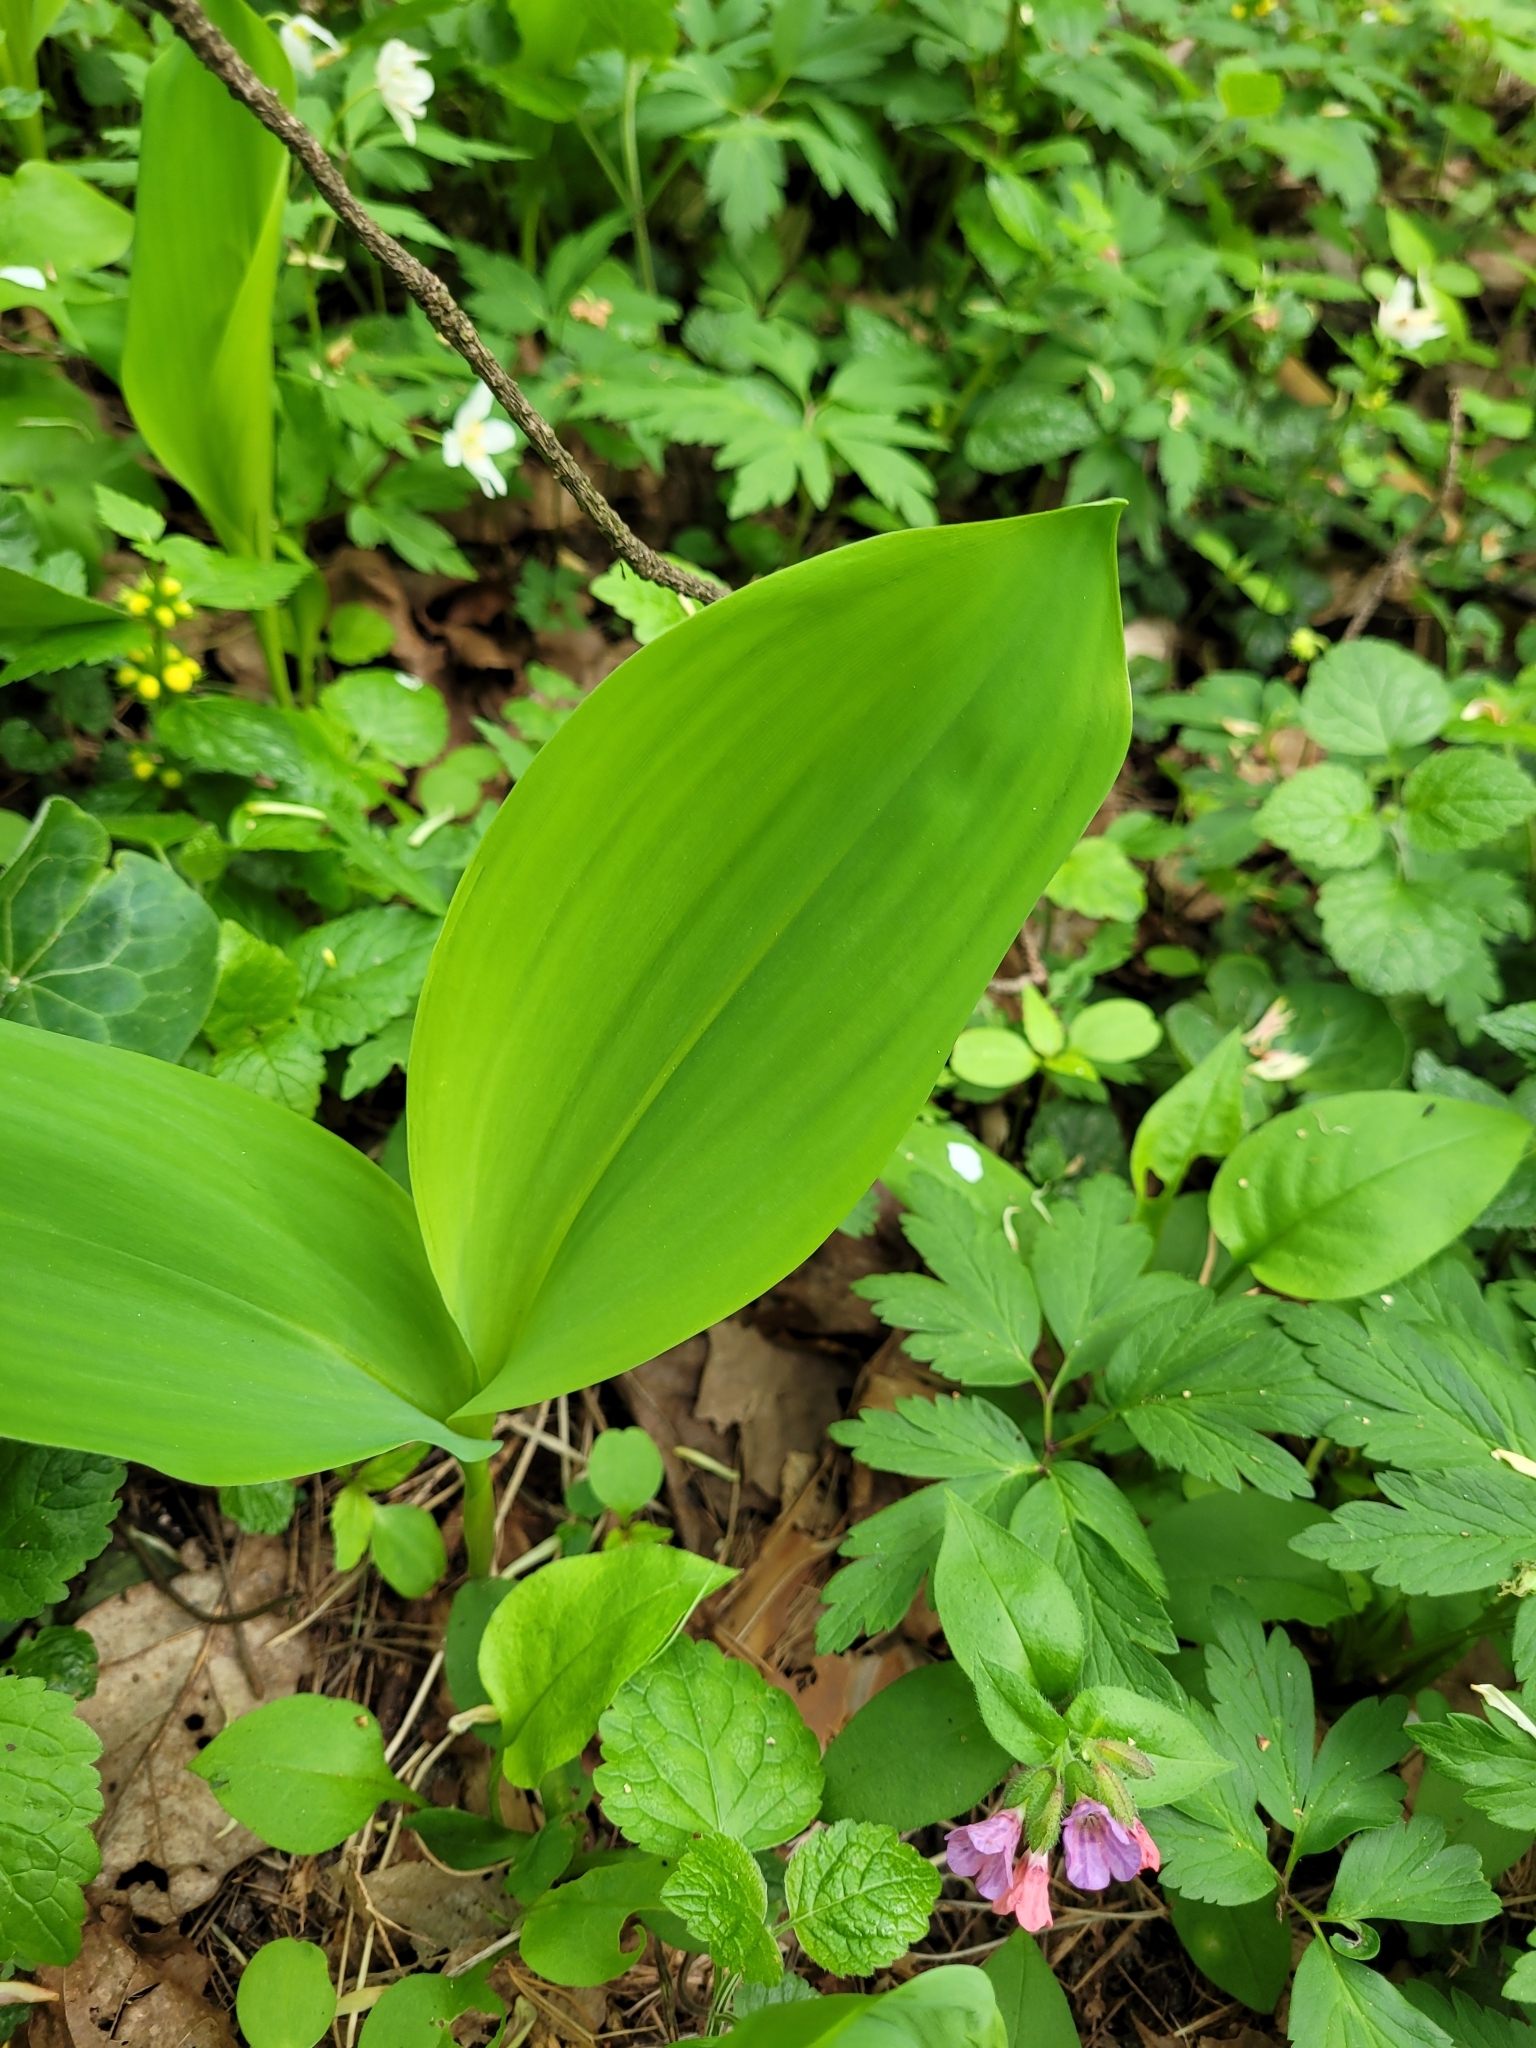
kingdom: Plantae
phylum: Tracheophyta
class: Liliopsida
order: Asparagales
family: Asparagaceae
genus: Convallaria
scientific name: Convallaria majalis
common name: Lily-of-the-valley
